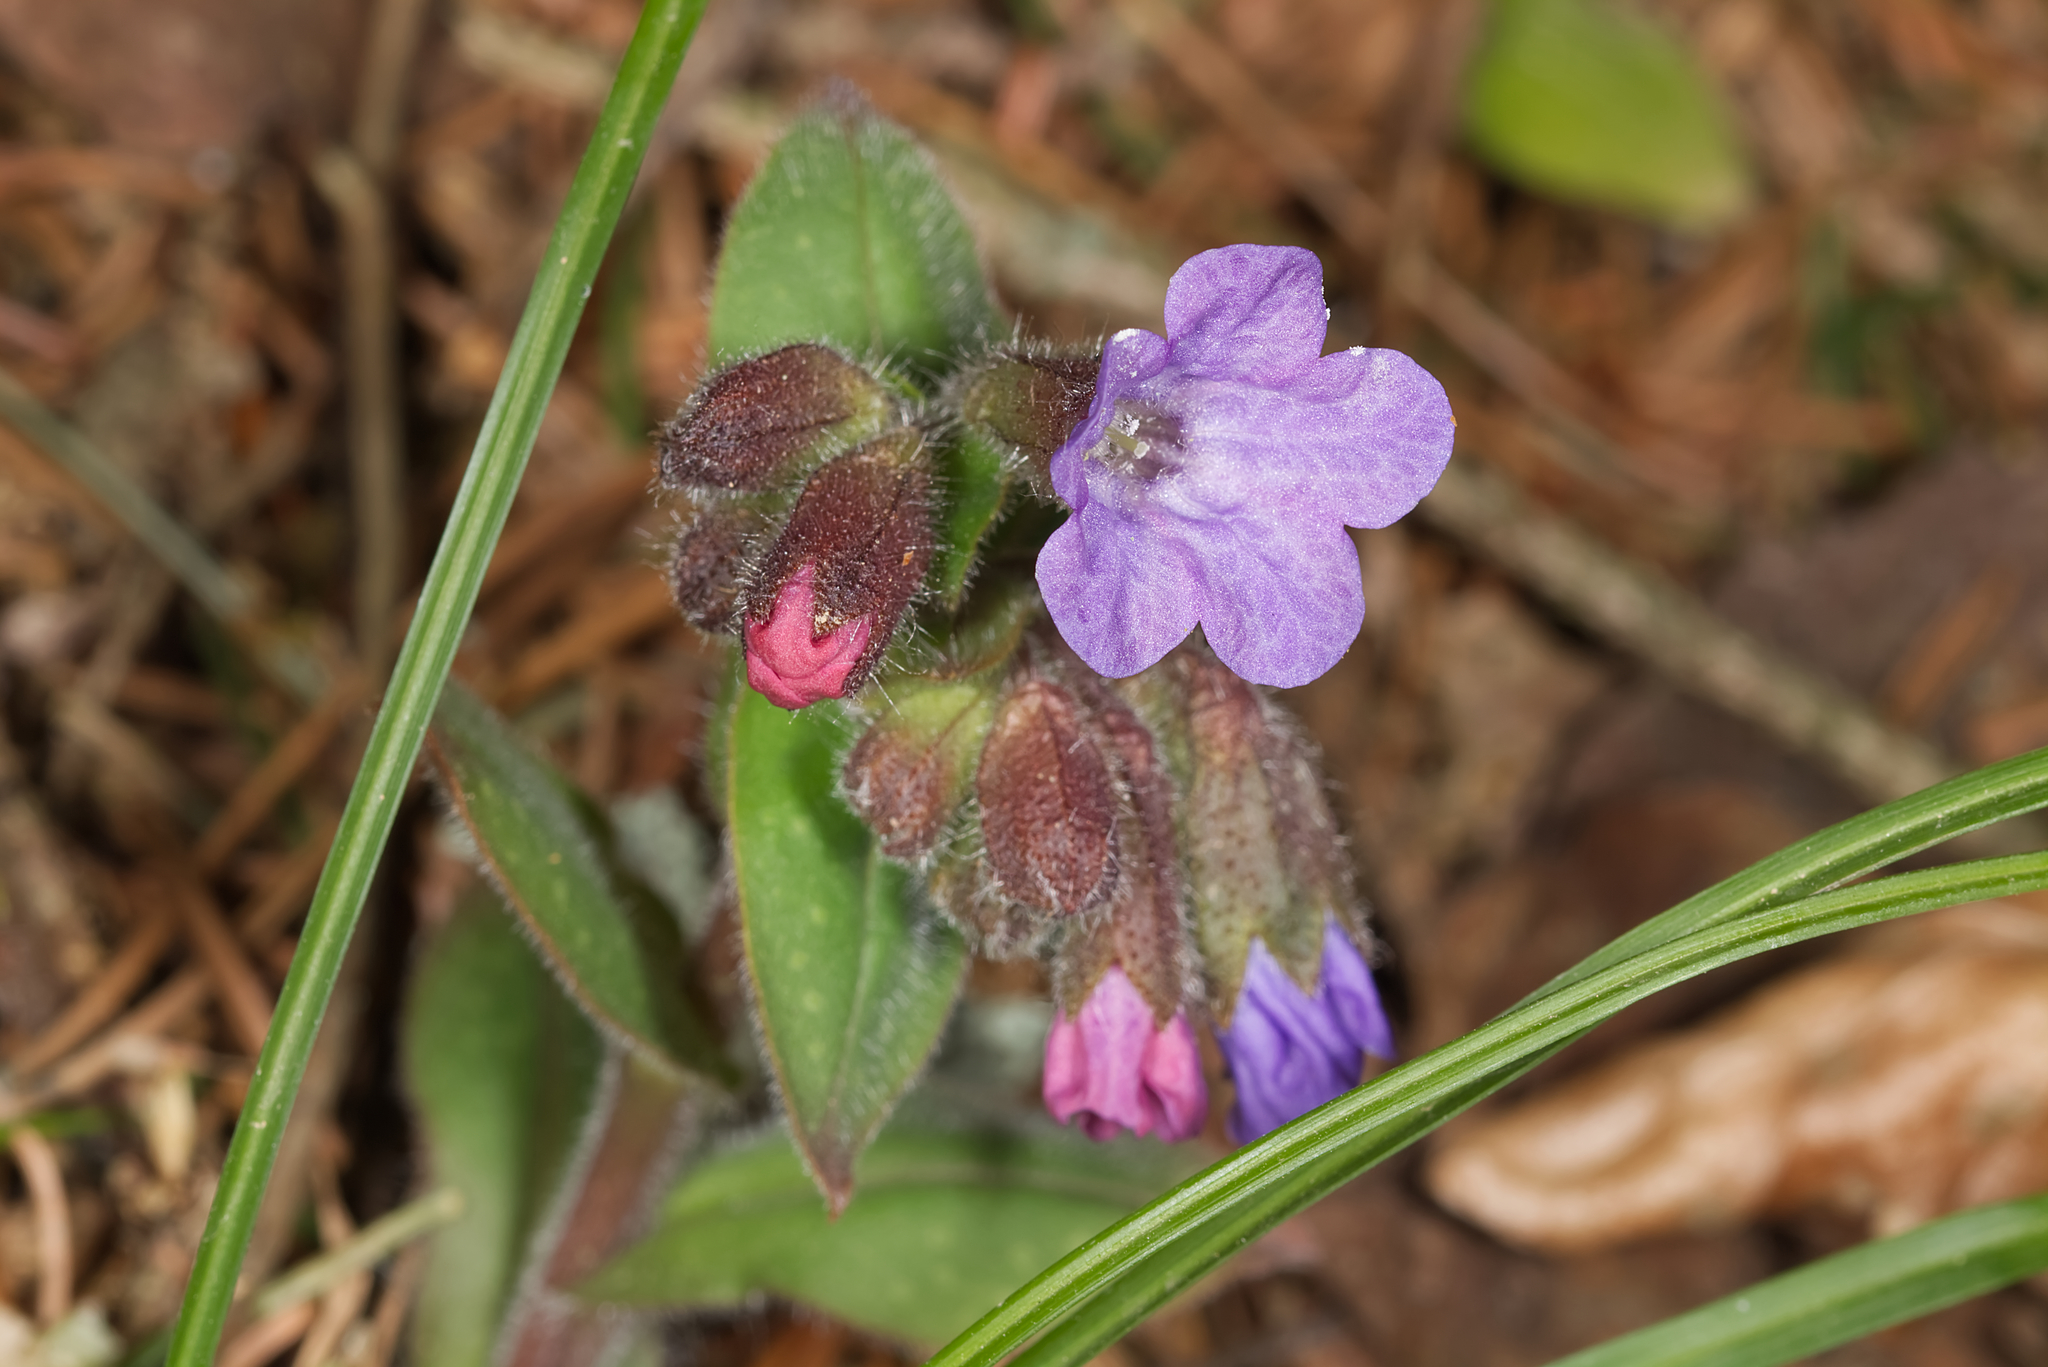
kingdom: Plantae
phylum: Tracheophyta
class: Magnoliopsida
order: Boraginales
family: Boraginaceae
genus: Pulmonaria
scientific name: Pulmonaria officinalis
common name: Lungwort
